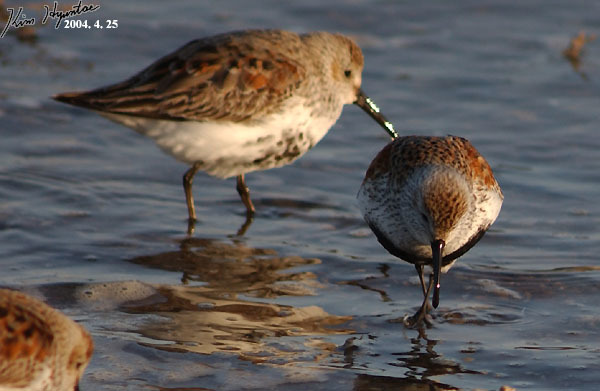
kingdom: Animalia
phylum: Chordata
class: Aves
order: Charadriiformes
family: Scolopacidae
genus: Calidris
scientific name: Calidris alpina
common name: Dunlin
